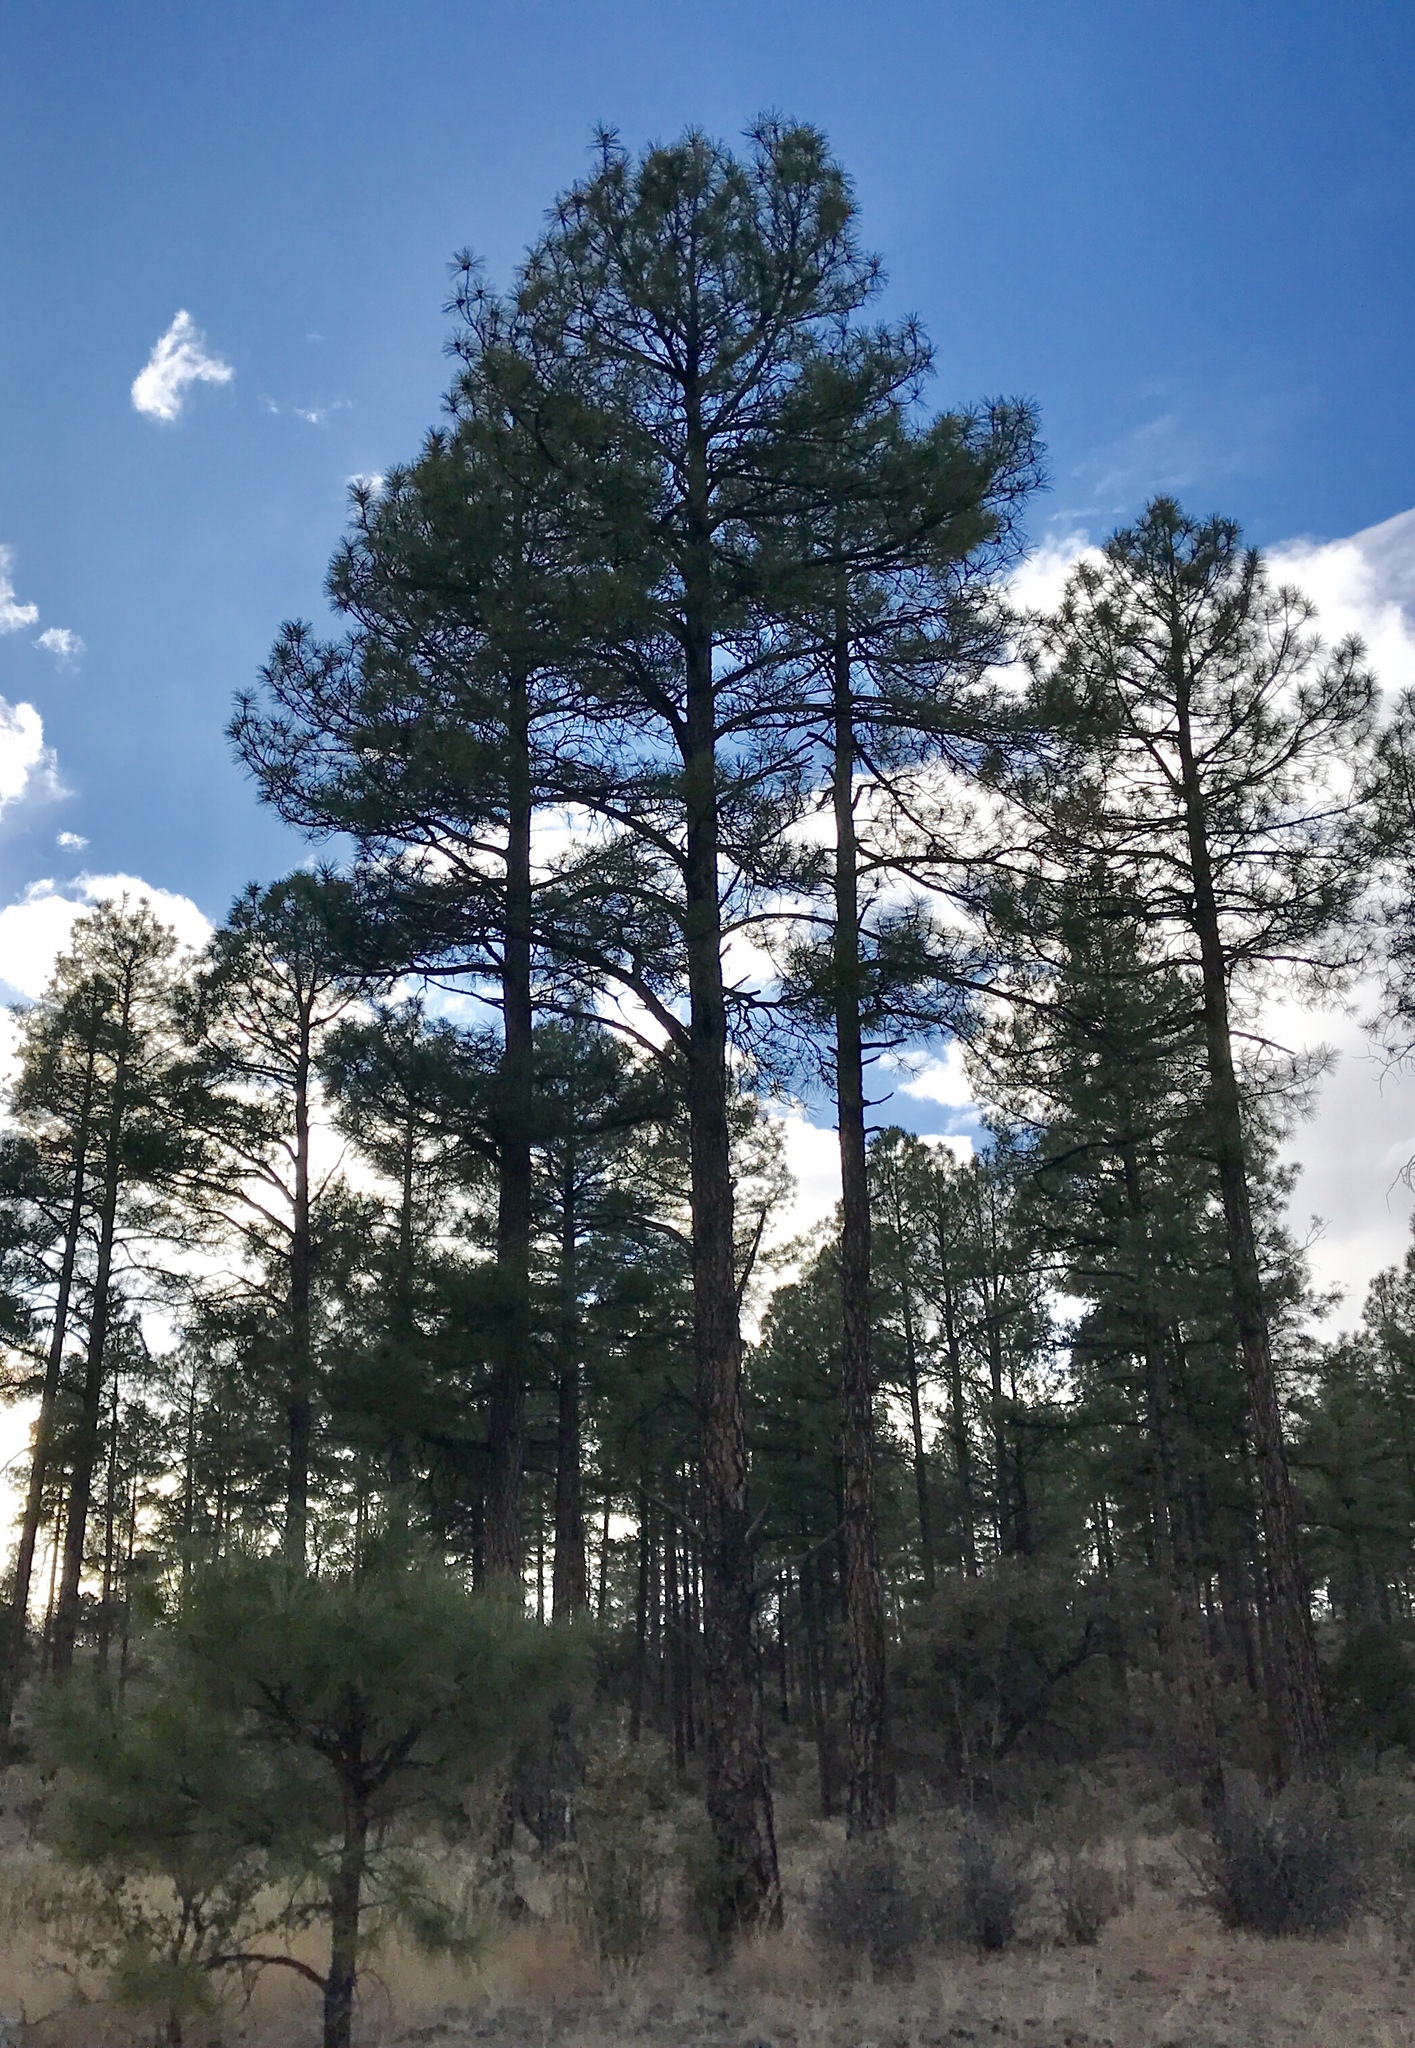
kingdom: Plantae
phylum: Tracheophyta
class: Pinopsida
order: Pinales
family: Pinaceae
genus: Pinus
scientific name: Pinus ponderosa
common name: Western yellow-pine
